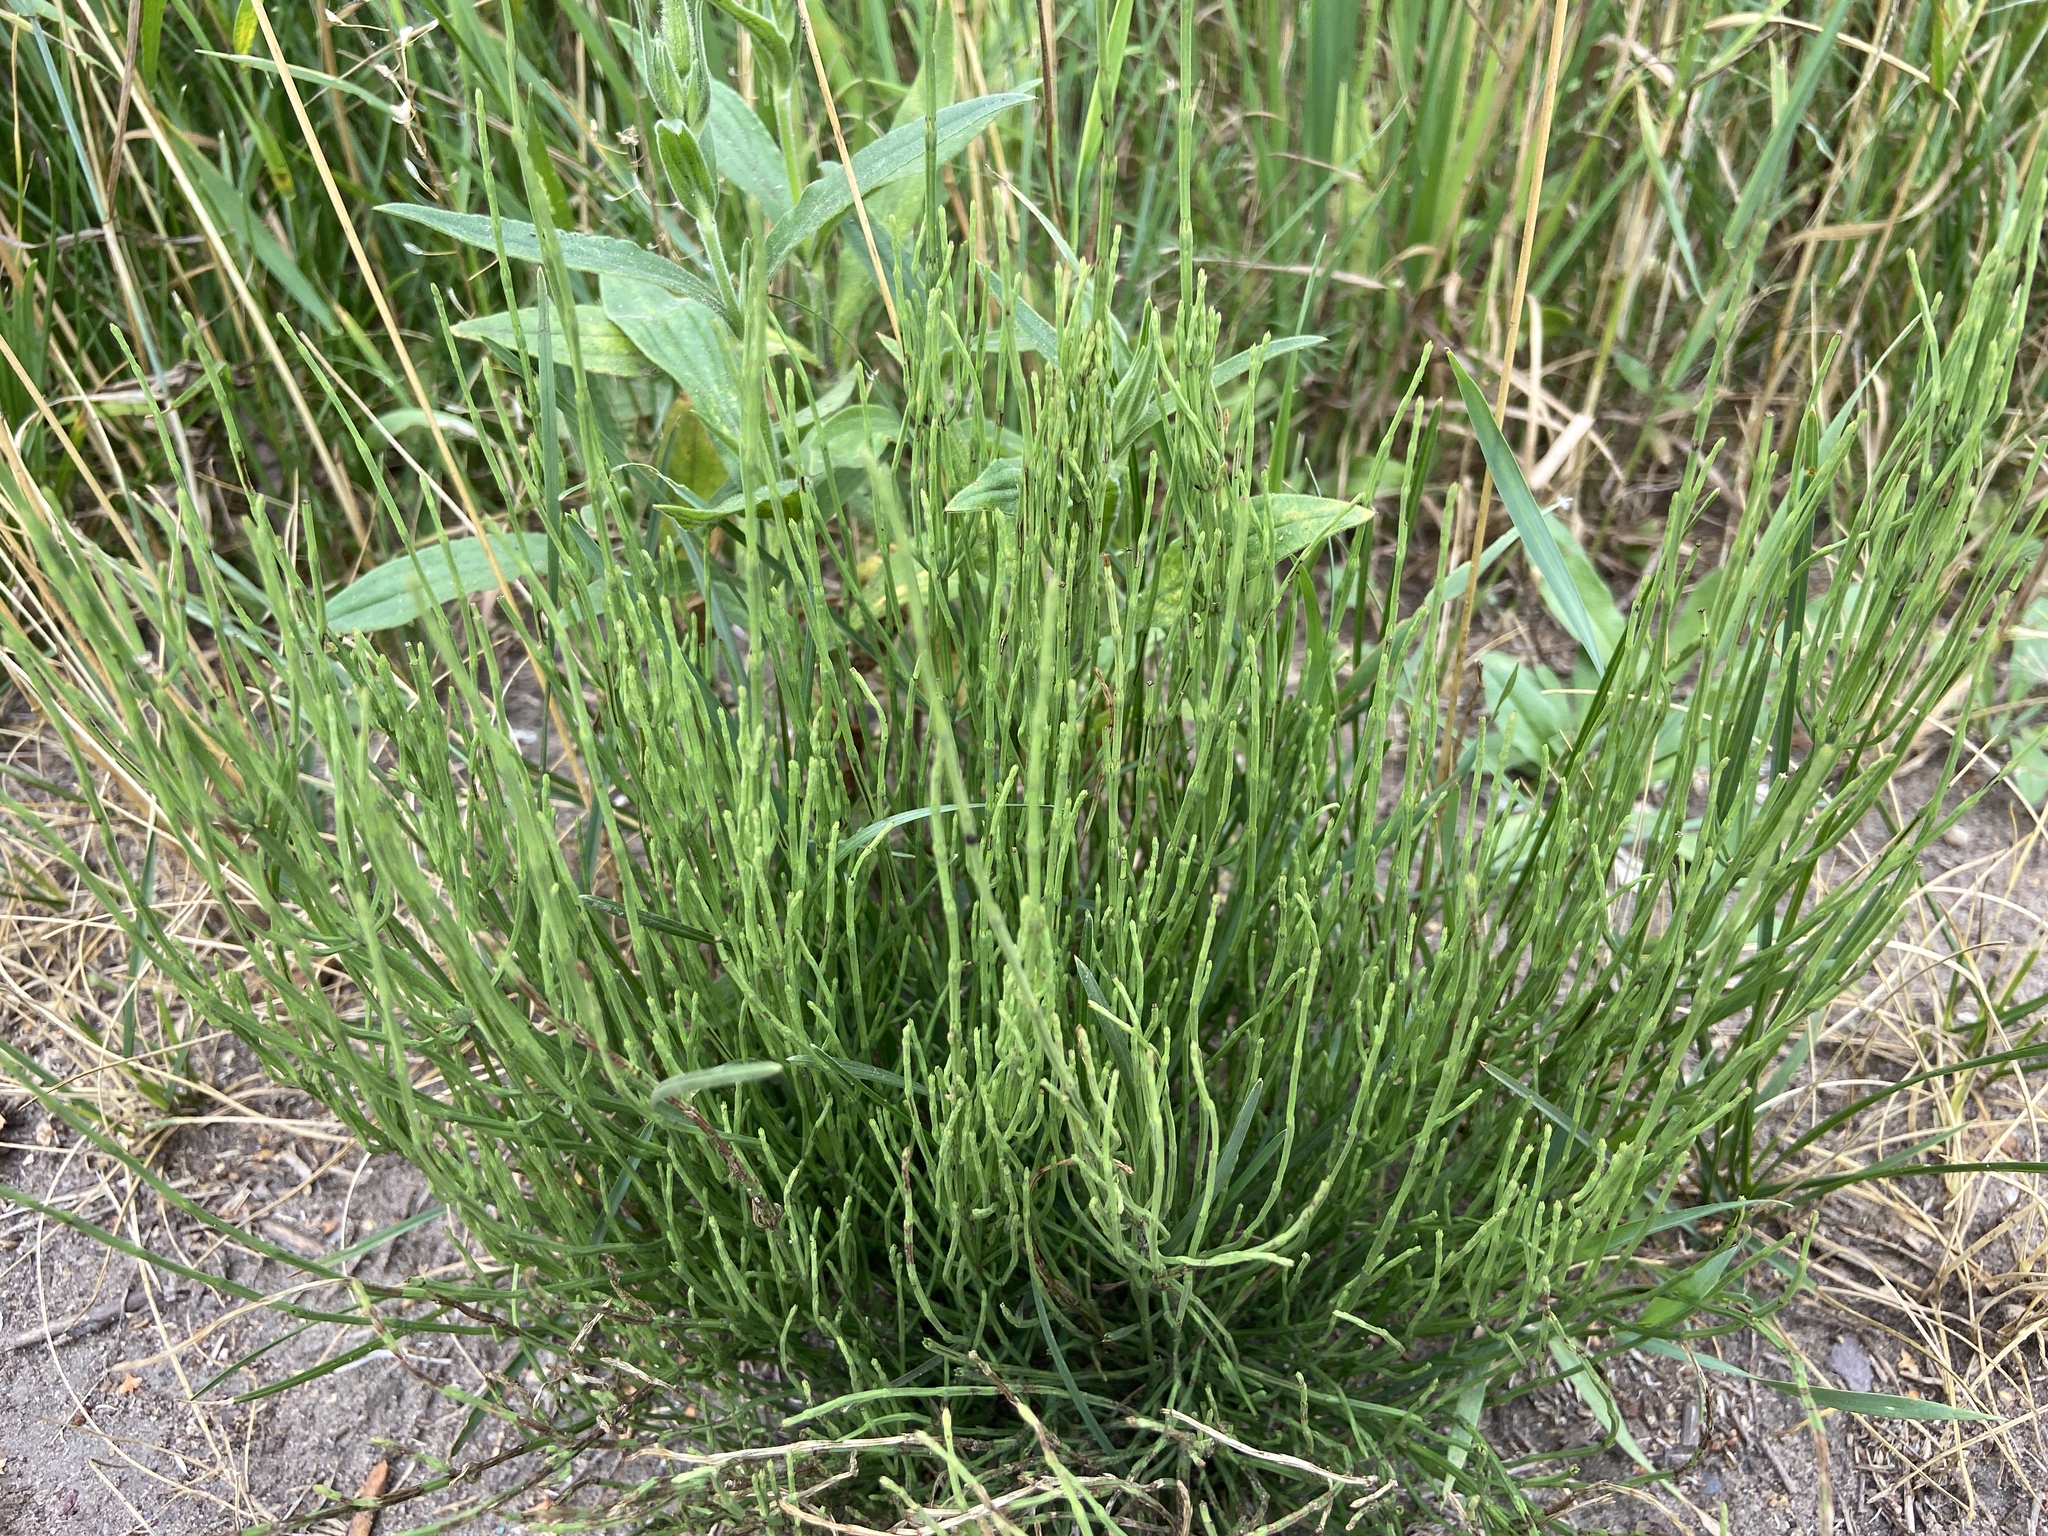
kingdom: Plantae
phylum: Tracheophyta
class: Polypodiopsida
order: Equisetales
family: Equisetaceae
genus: Equisetum
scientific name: Equisetum arvense
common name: Field horsetail
